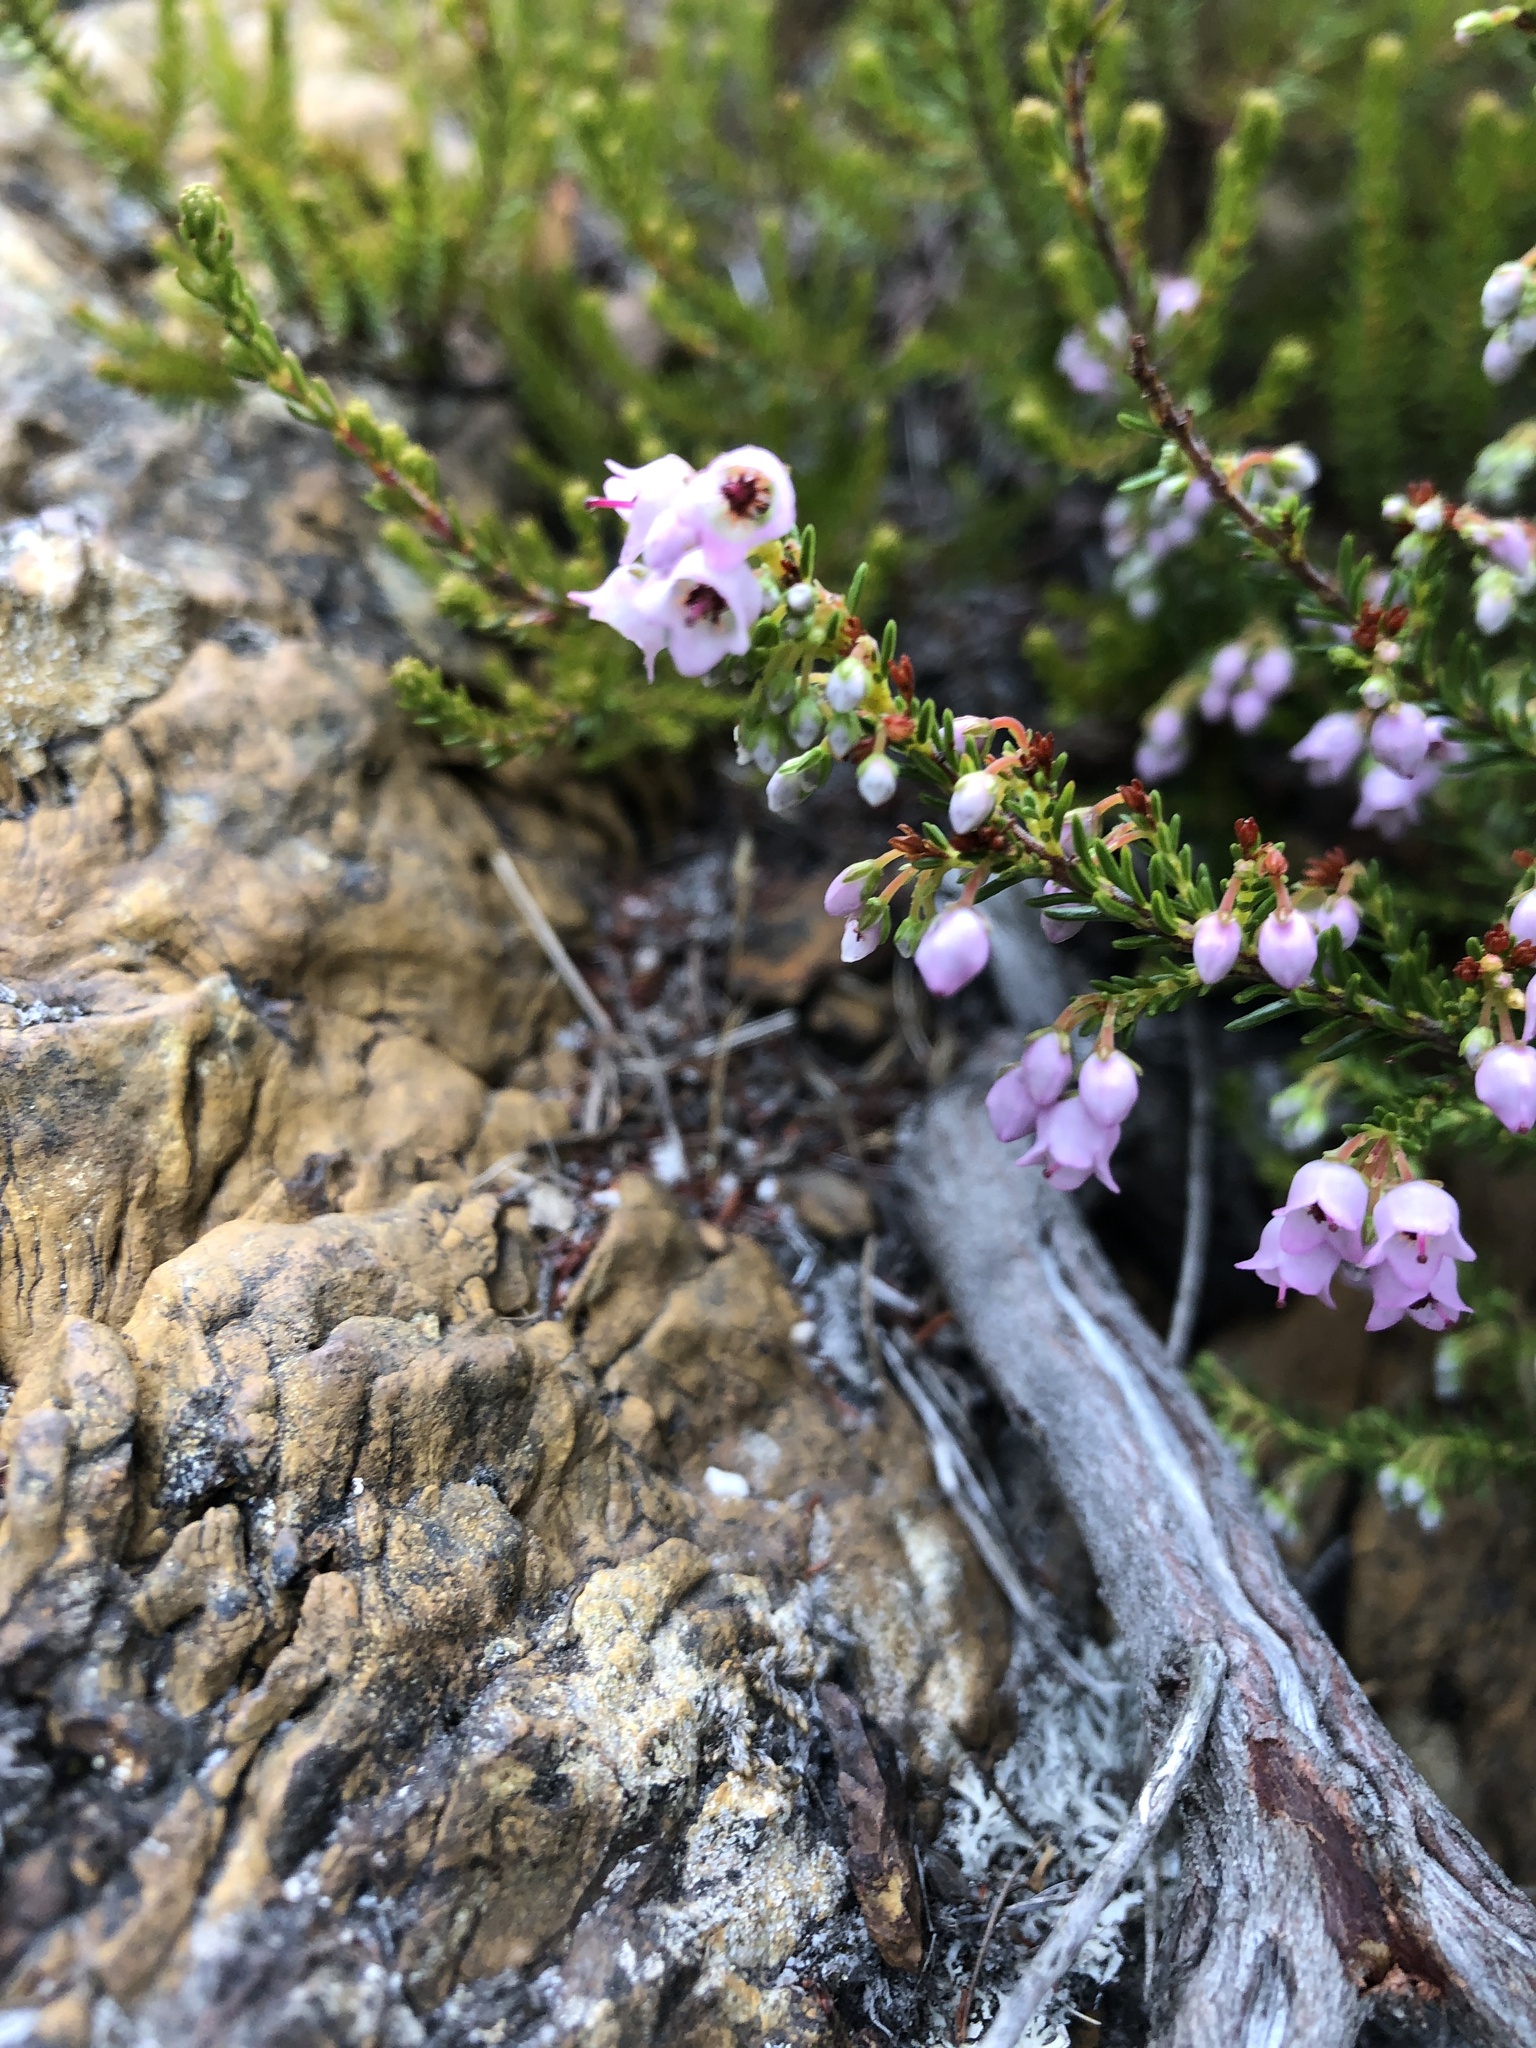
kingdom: Plantae
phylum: Tracheophyta
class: Magnoliopsida
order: Ericales
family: Ericaceae
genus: Erica
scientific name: Erica curvirostris
